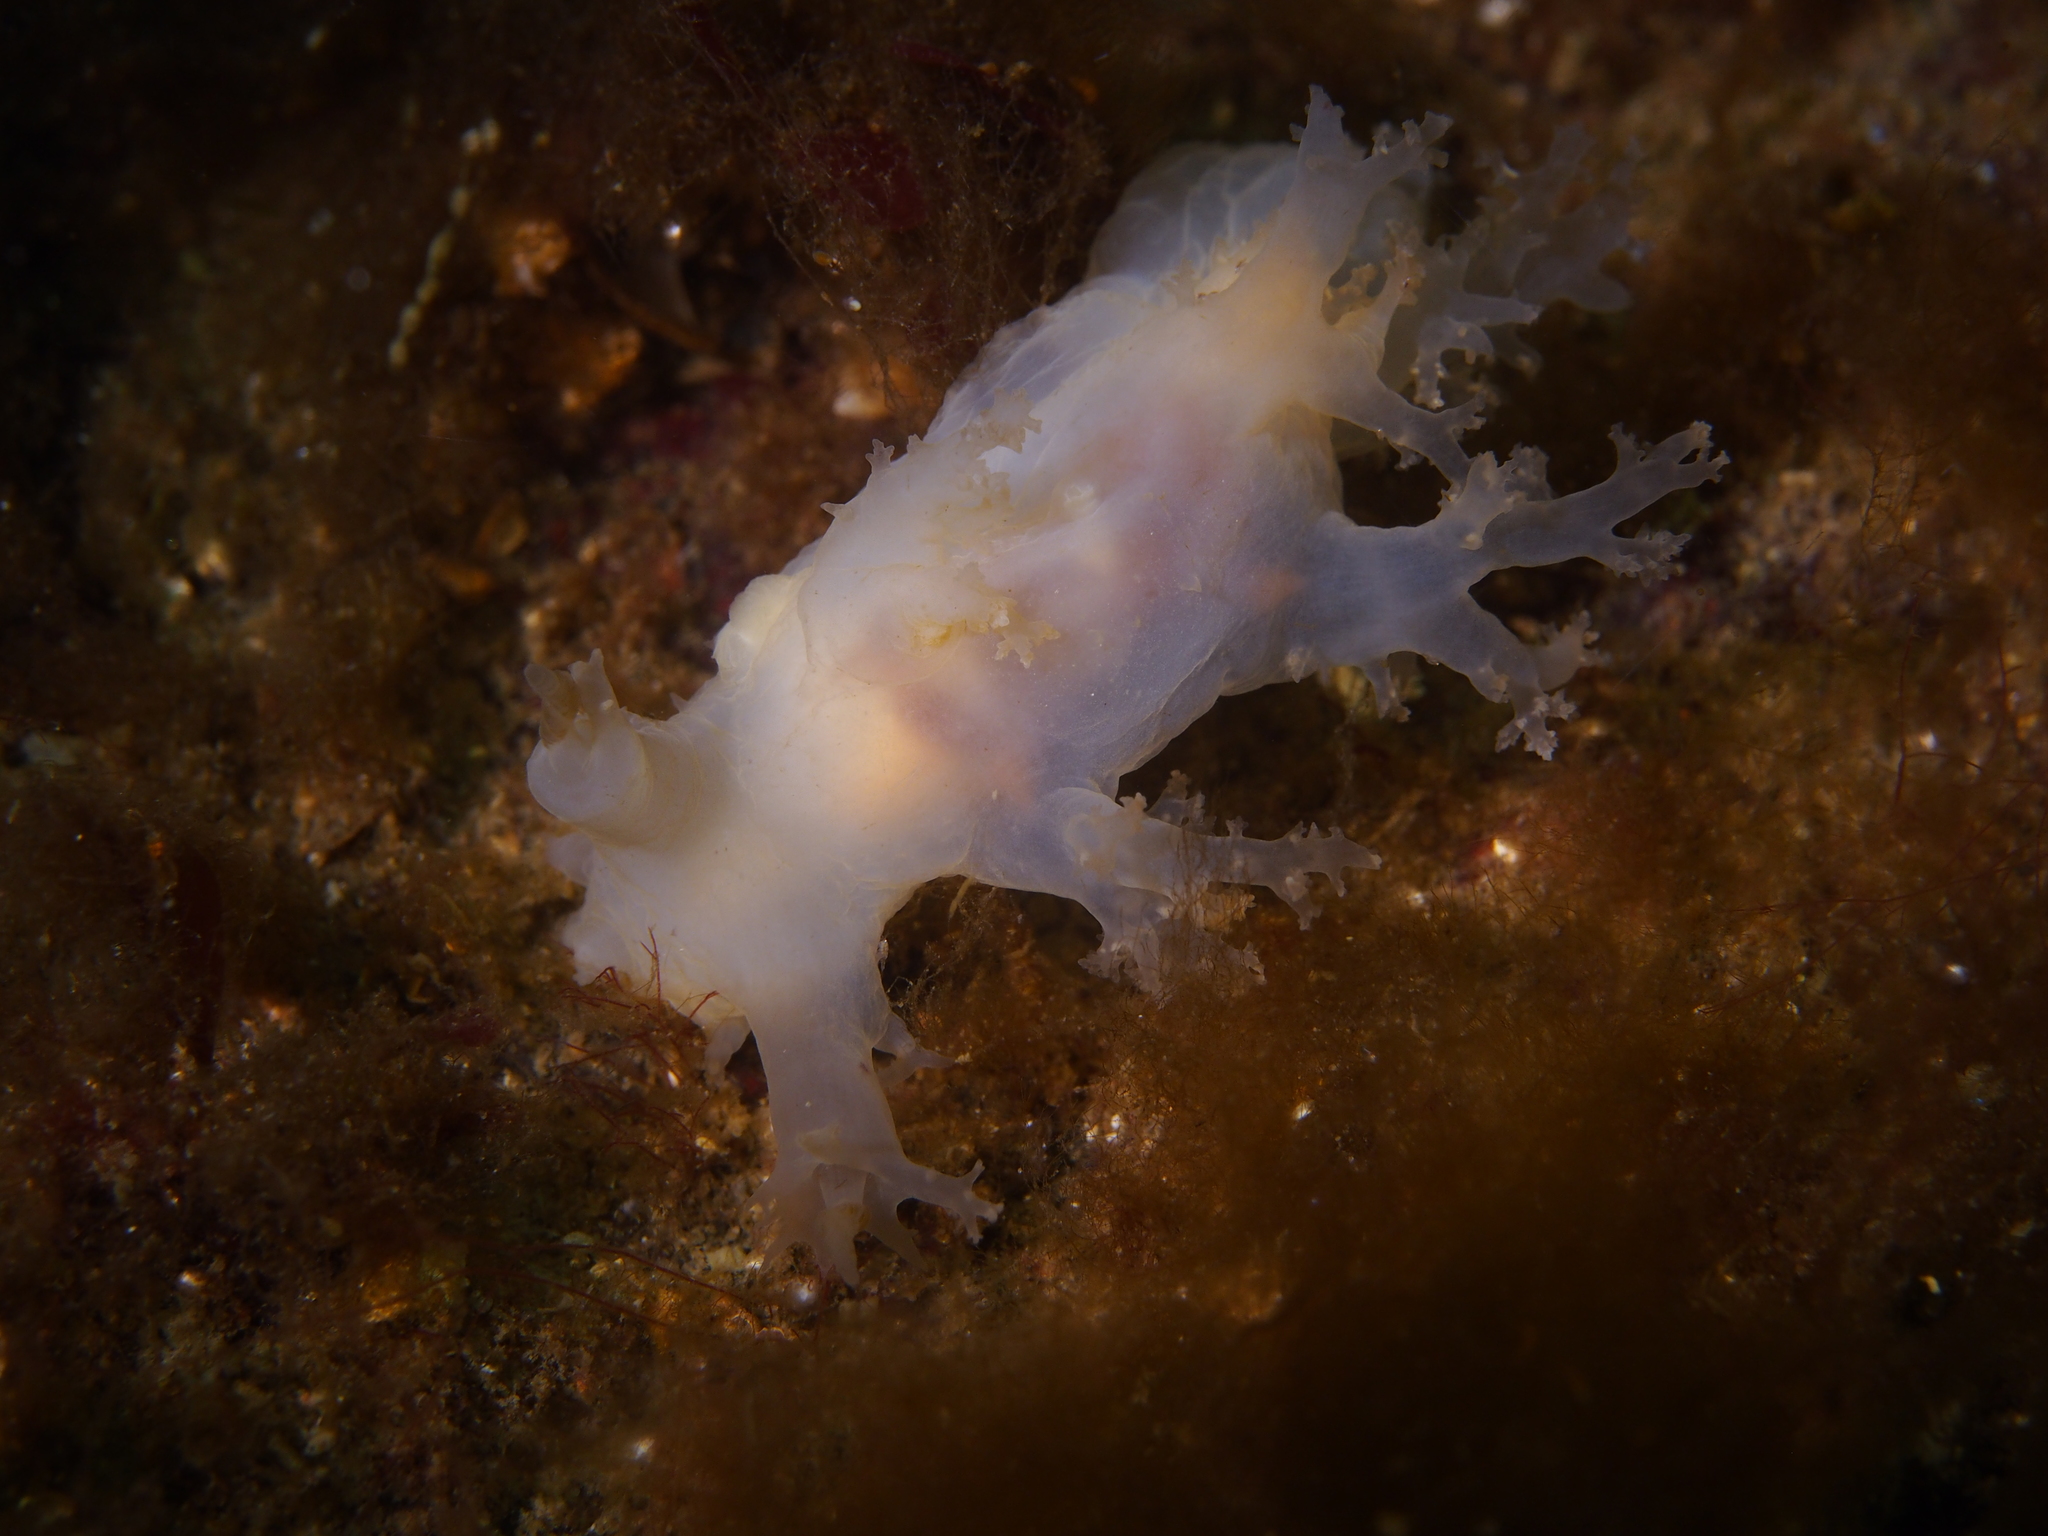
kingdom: Animalia
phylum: Mollusca
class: Gastropoda
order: Nudibranchia
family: Dendronotidae
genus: Dendronotus
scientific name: Dendronotus lacteus
